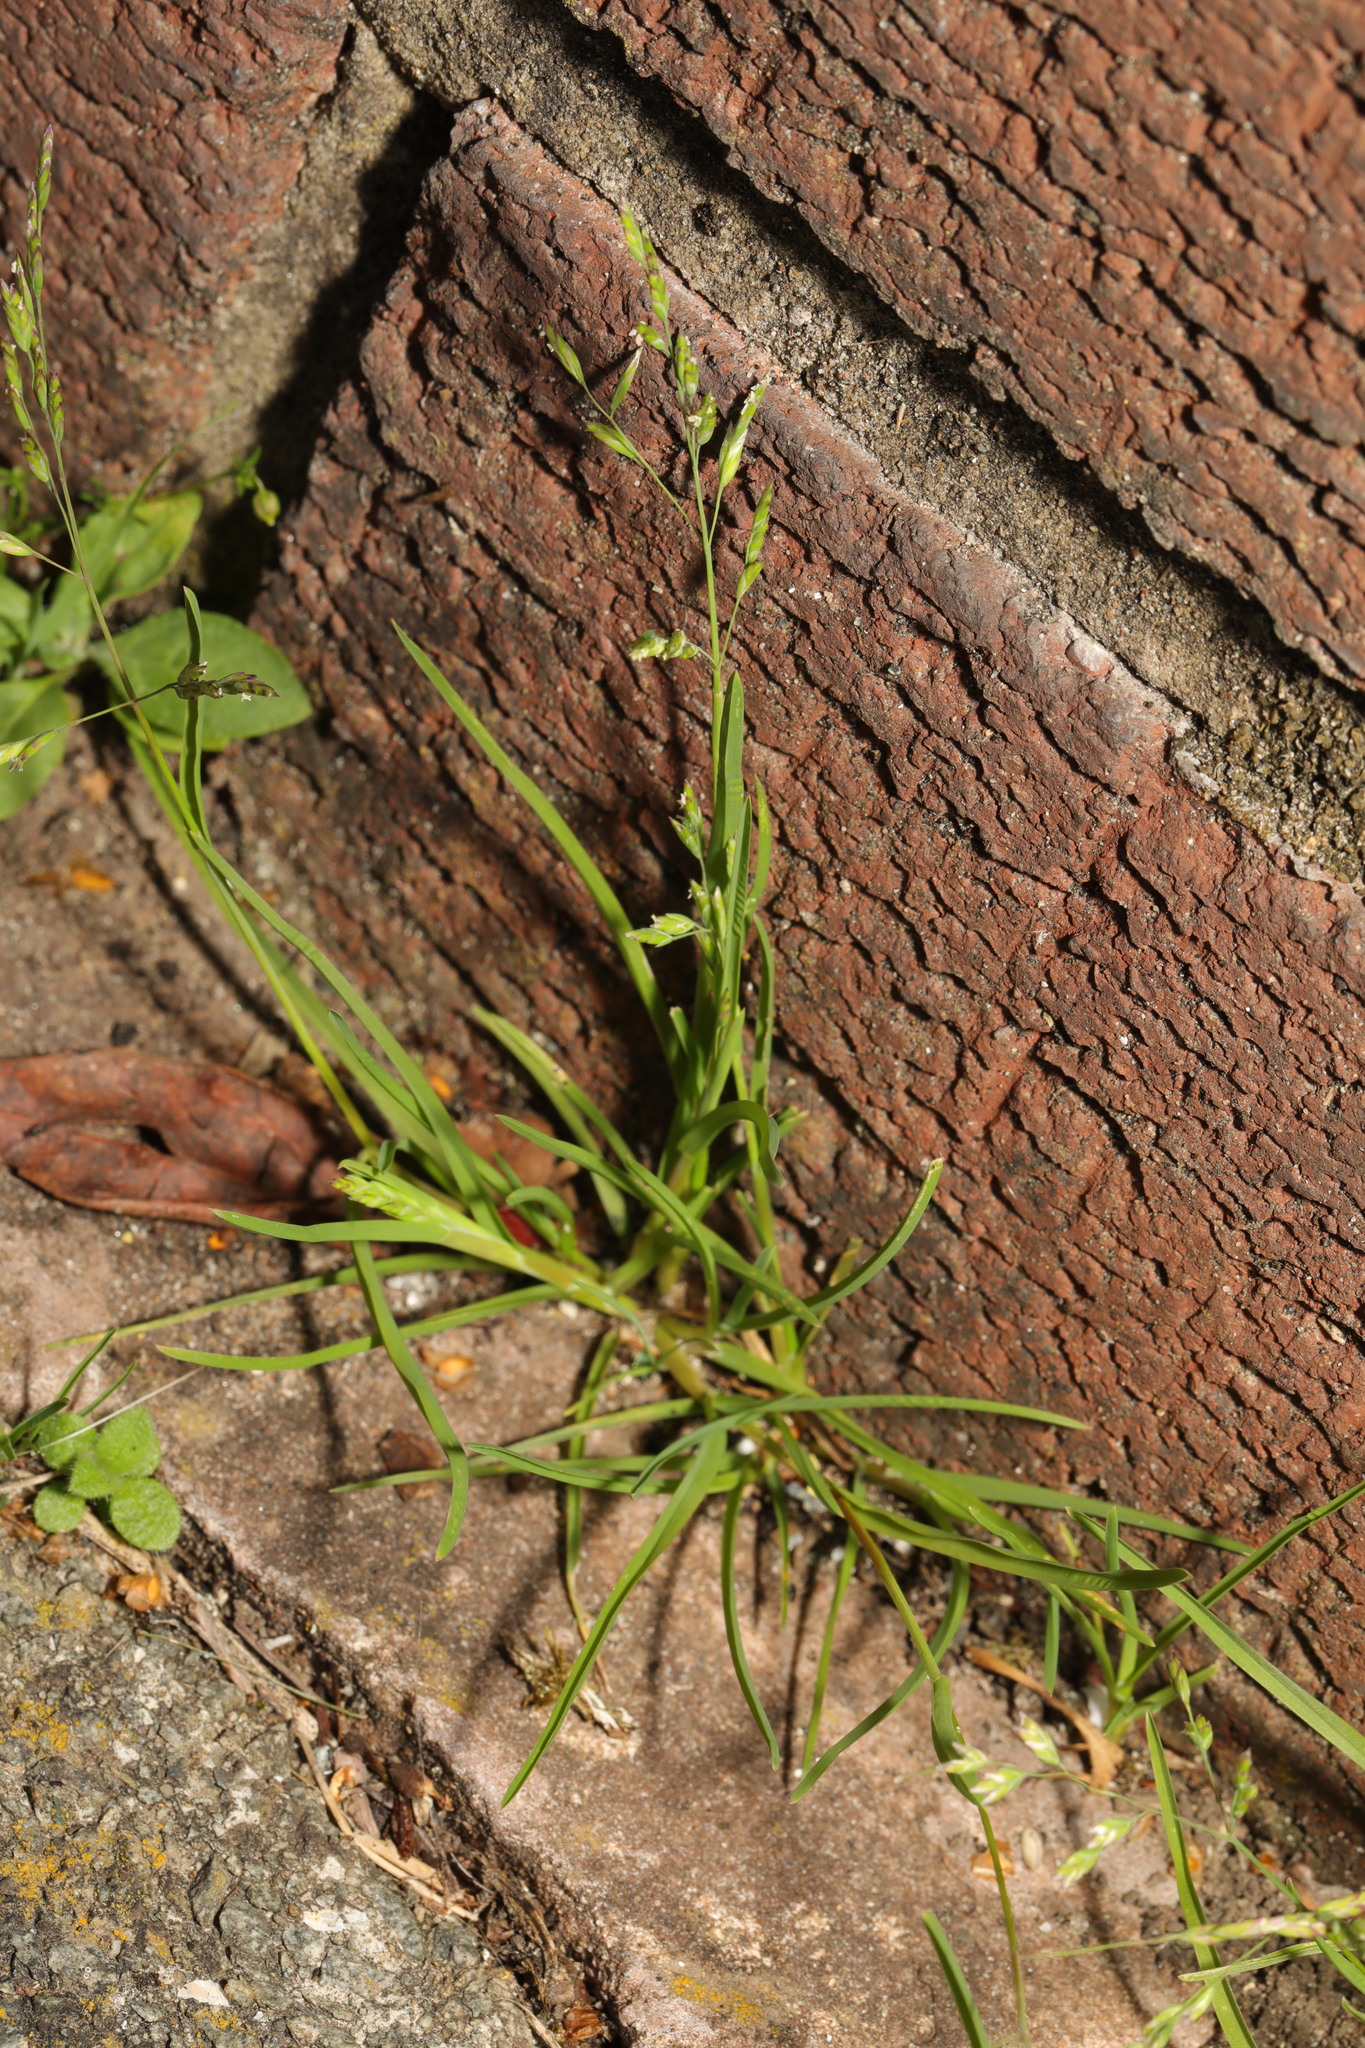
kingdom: Plantae
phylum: Tracheophyta
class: Liliopsida
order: Poales
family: Poaceae
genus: Poa
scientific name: Poa annua
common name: Annual bluegrass
